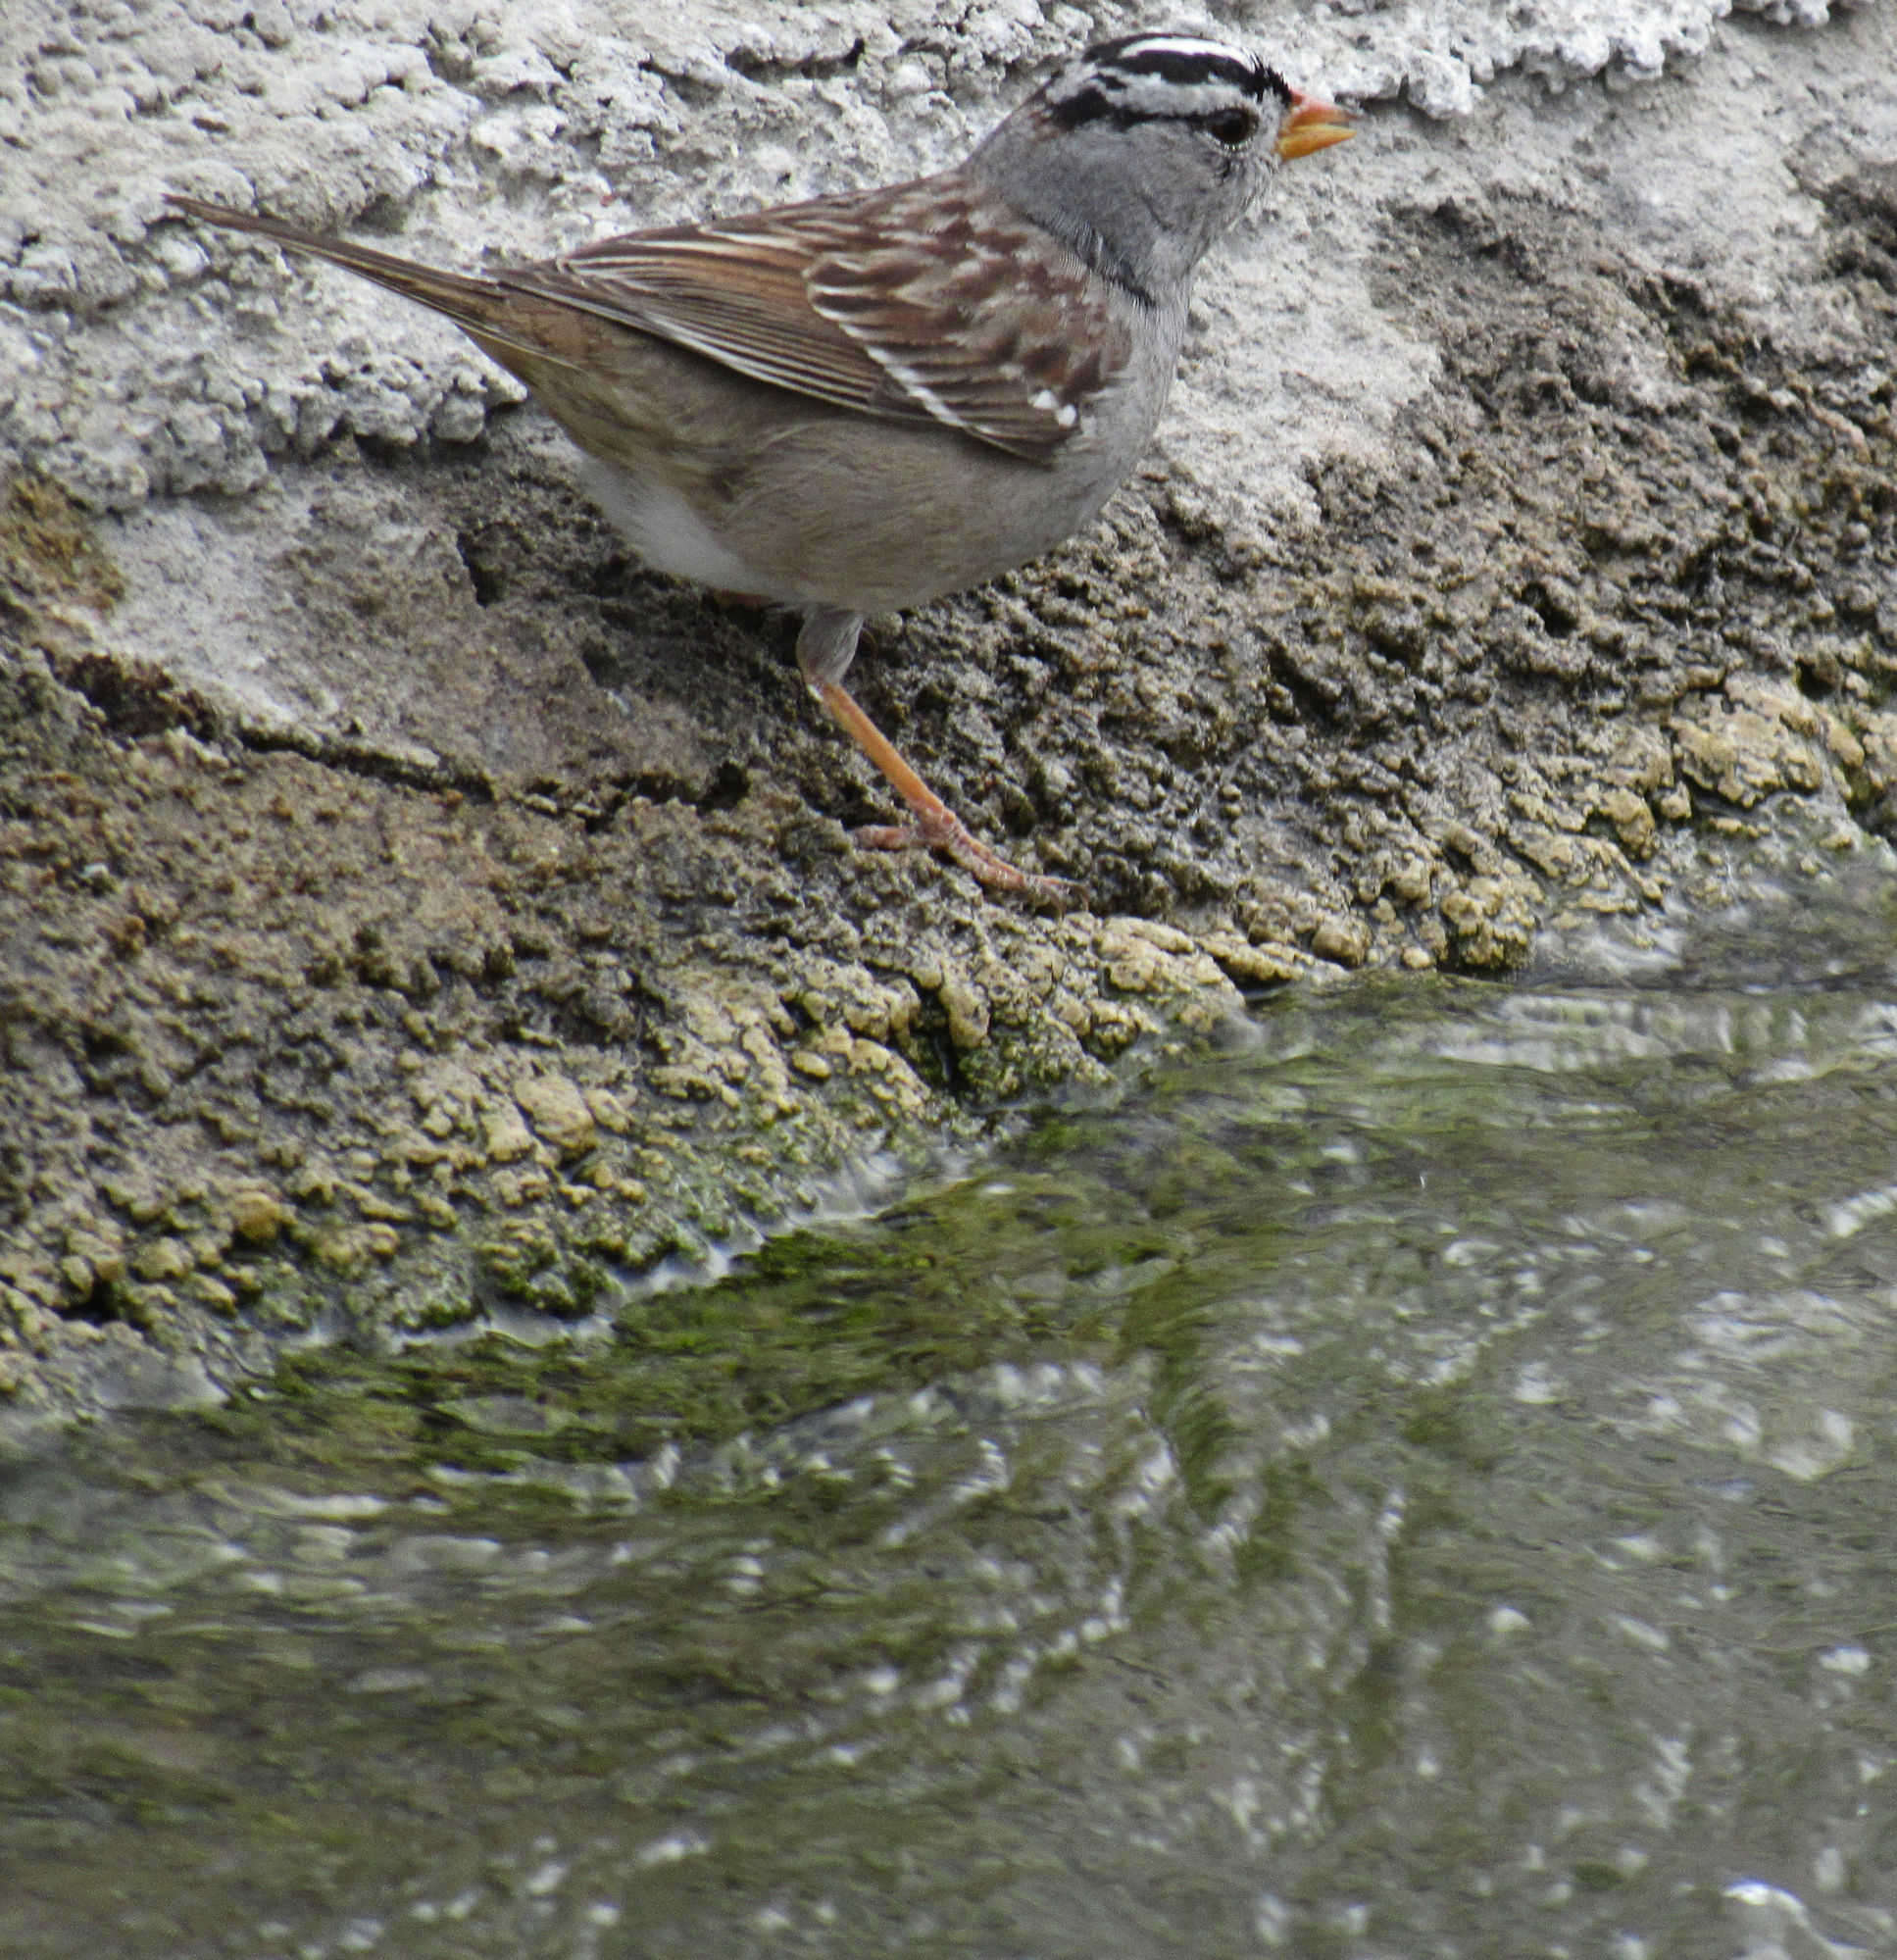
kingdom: Animalia
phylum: Chordata
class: Aves
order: Passeriformes
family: Passerellidae
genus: Zonotrichia
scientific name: Zonotrichia leucophrys
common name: White-crowned sparrow
